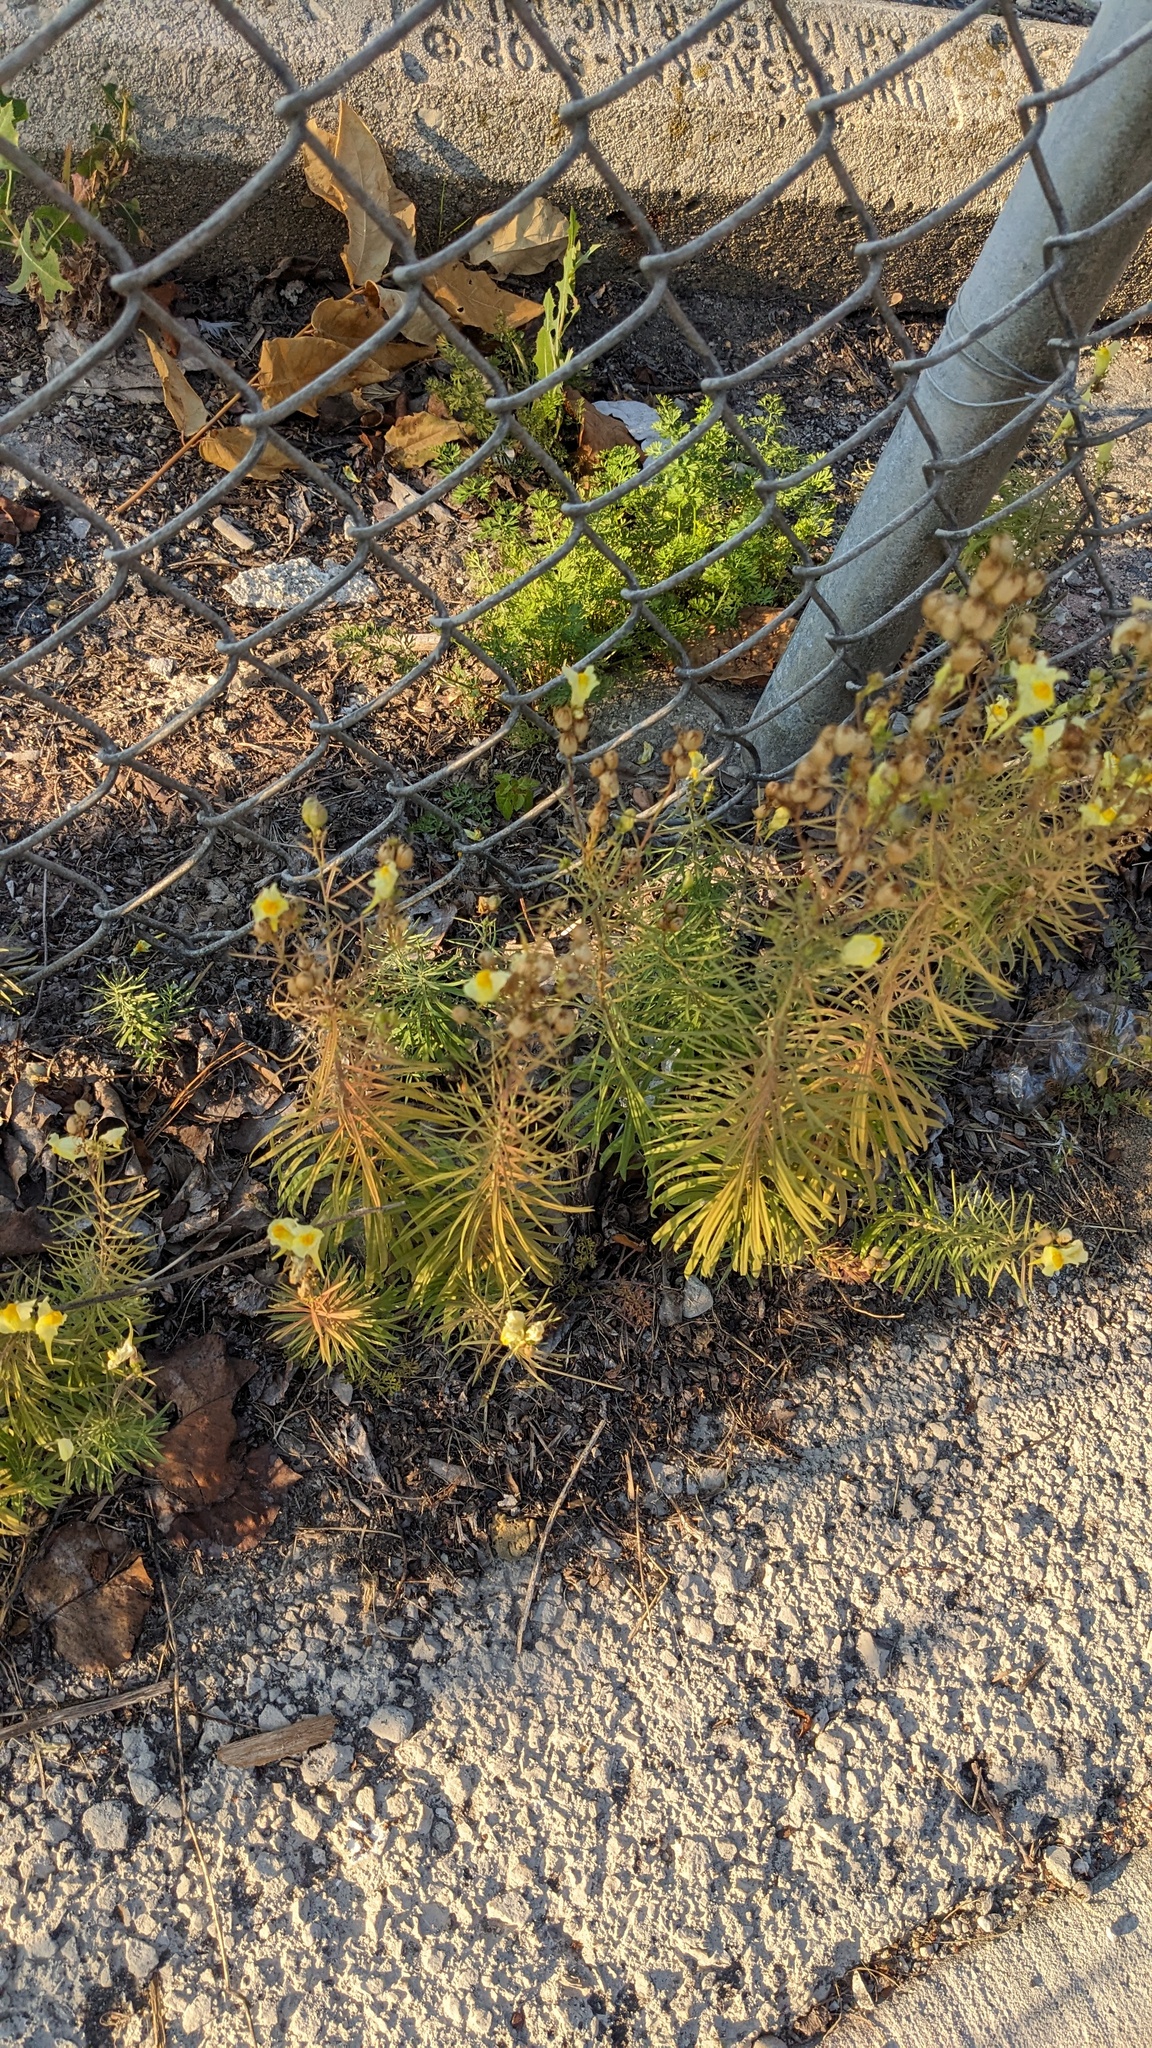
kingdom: Plantae
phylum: Tracheophyta
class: Magnoliopsida
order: Lamiales
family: Plantaginaceae
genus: Linaria
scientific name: Linaria vulgaris
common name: Butter and eggs
